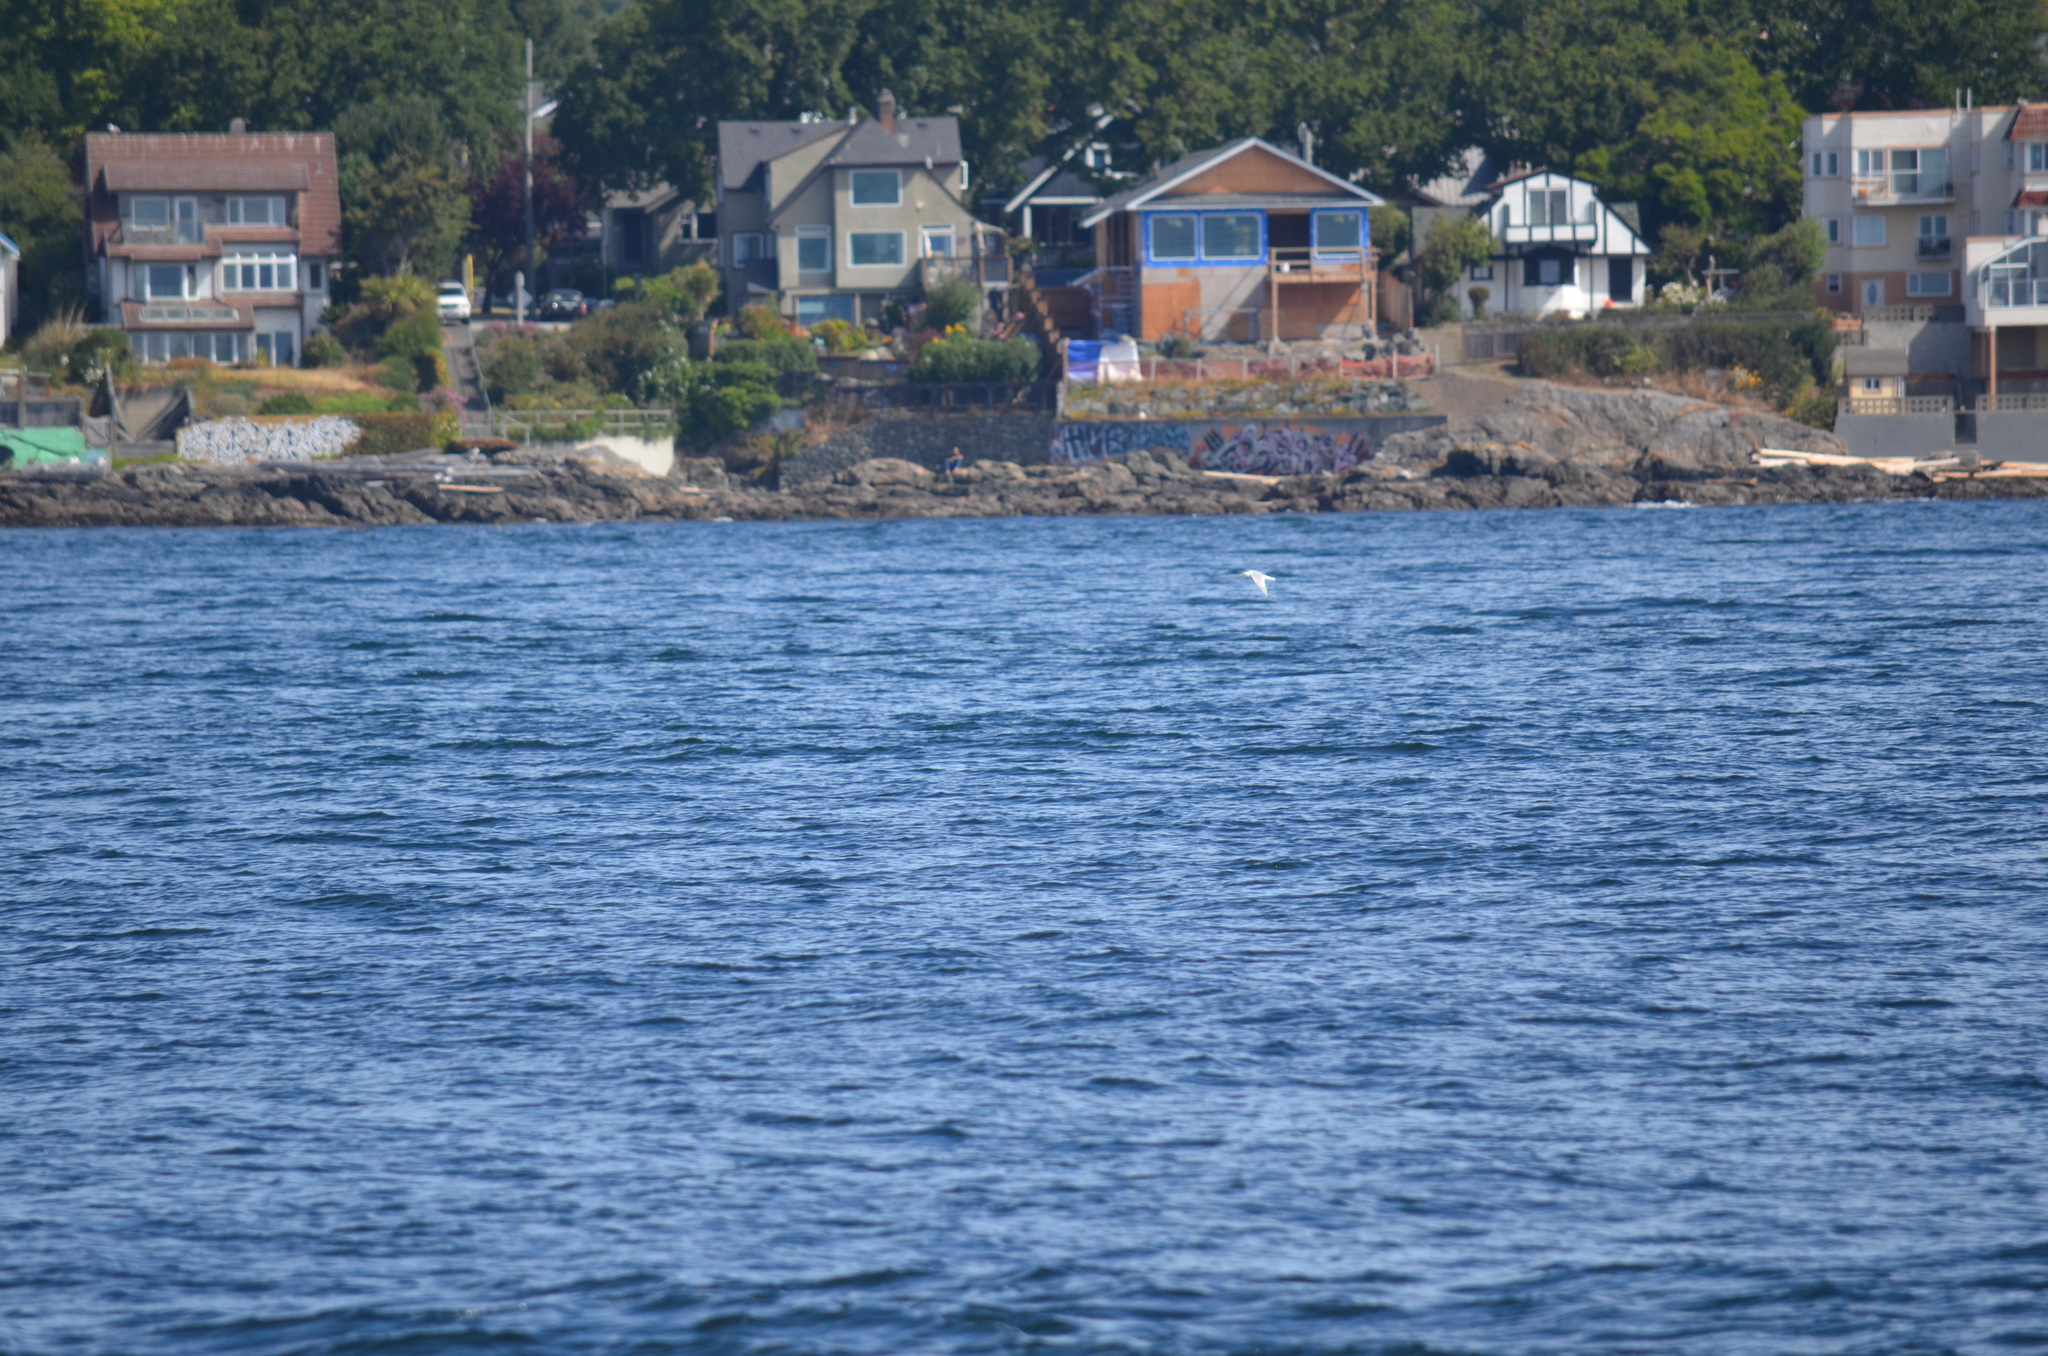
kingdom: Animalia
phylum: Chordata
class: Aves
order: Charadriiformes
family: Laridae
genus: Larus
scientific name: Larus glaucescens
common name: Glaucous-winged gull
